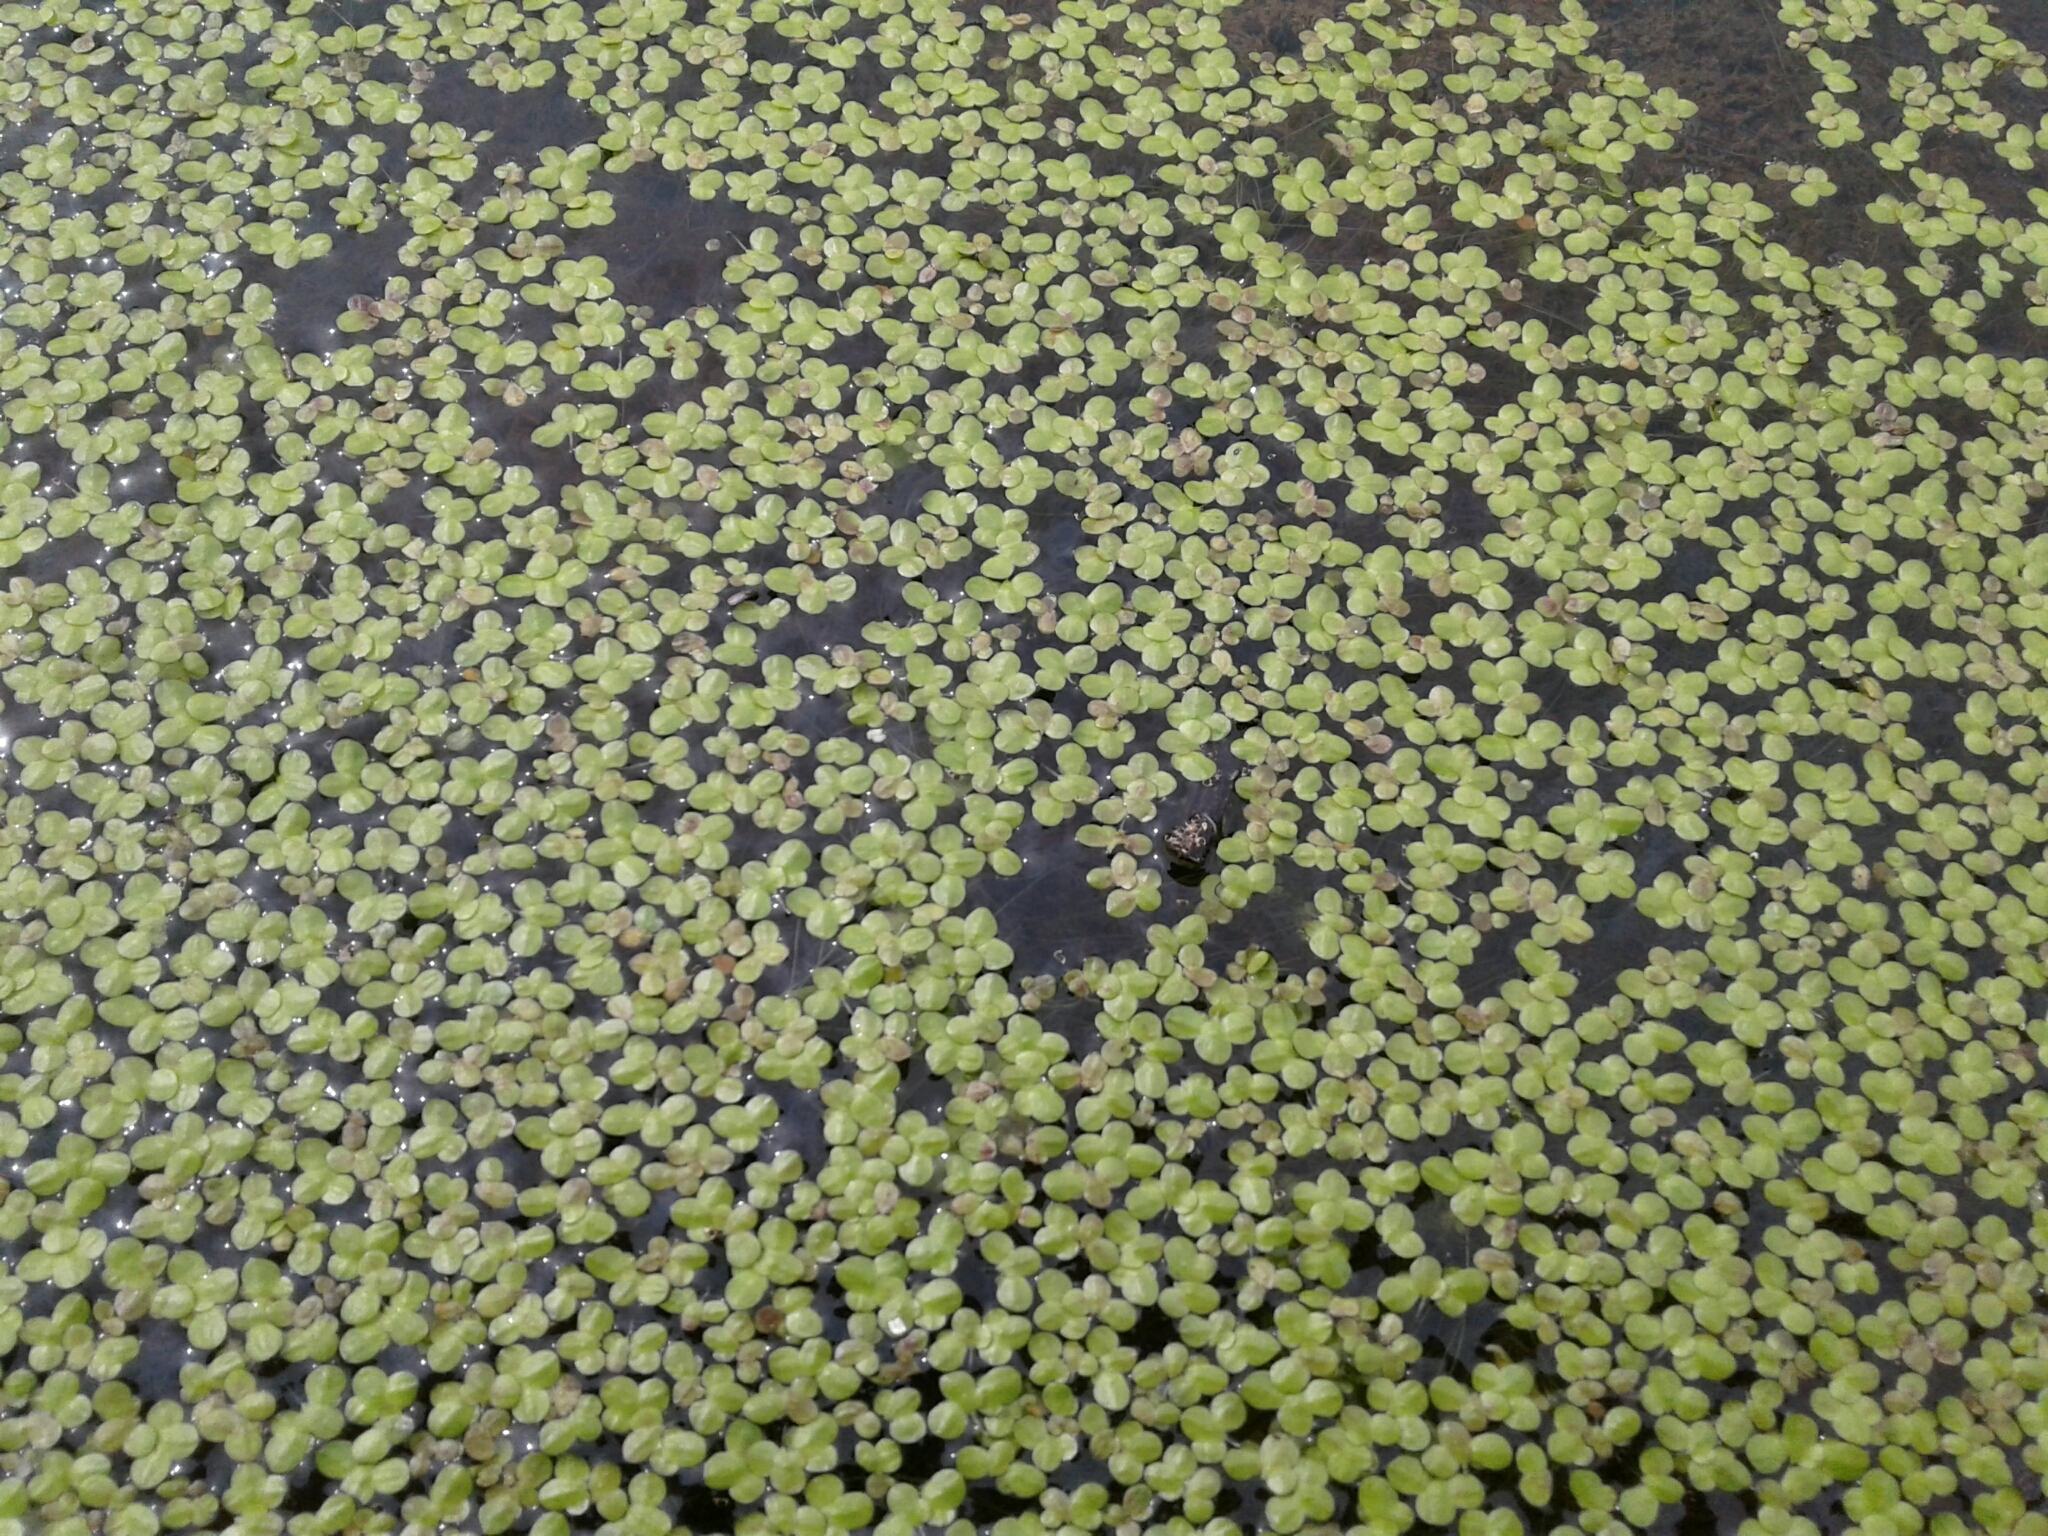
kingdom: Plantae
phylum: Tracheophyta
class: Liliopsida
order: Alismatales
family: Araceae
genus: Lemna
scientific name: Lemna turionifera
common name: Perennial duckweed
